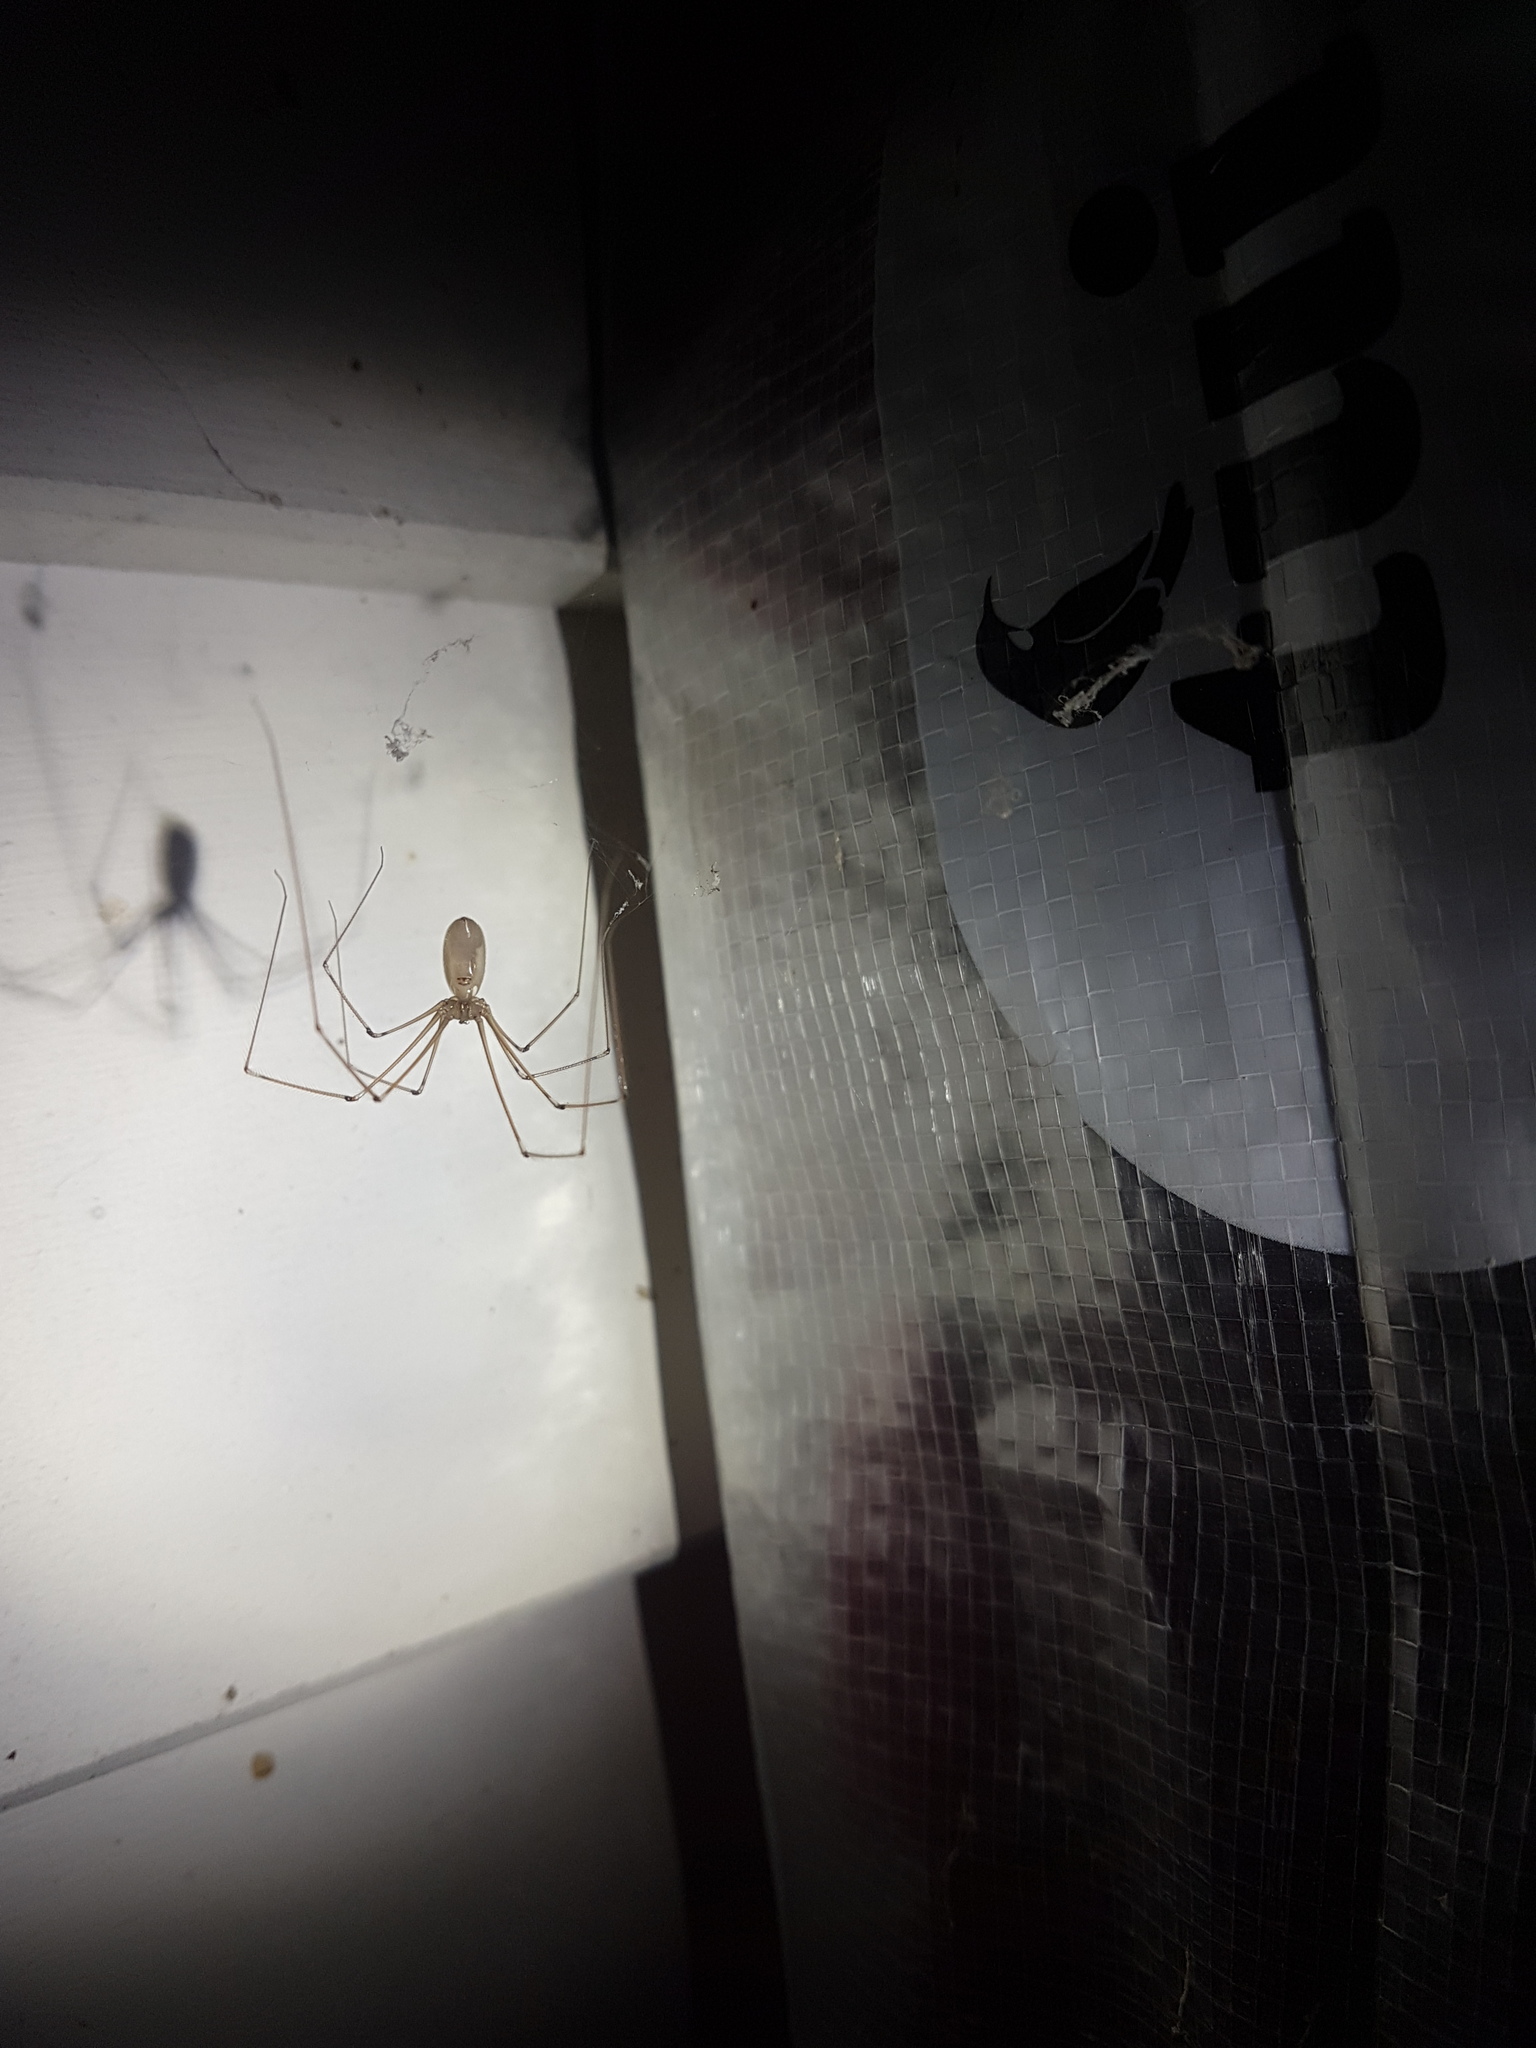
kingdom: Animalia
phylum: Arthropoda
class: Arachnida
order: Araneae
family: Pholcidae
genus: Pholcus
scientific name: Pholcus phalangioides
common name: Longbodied cellar spider
